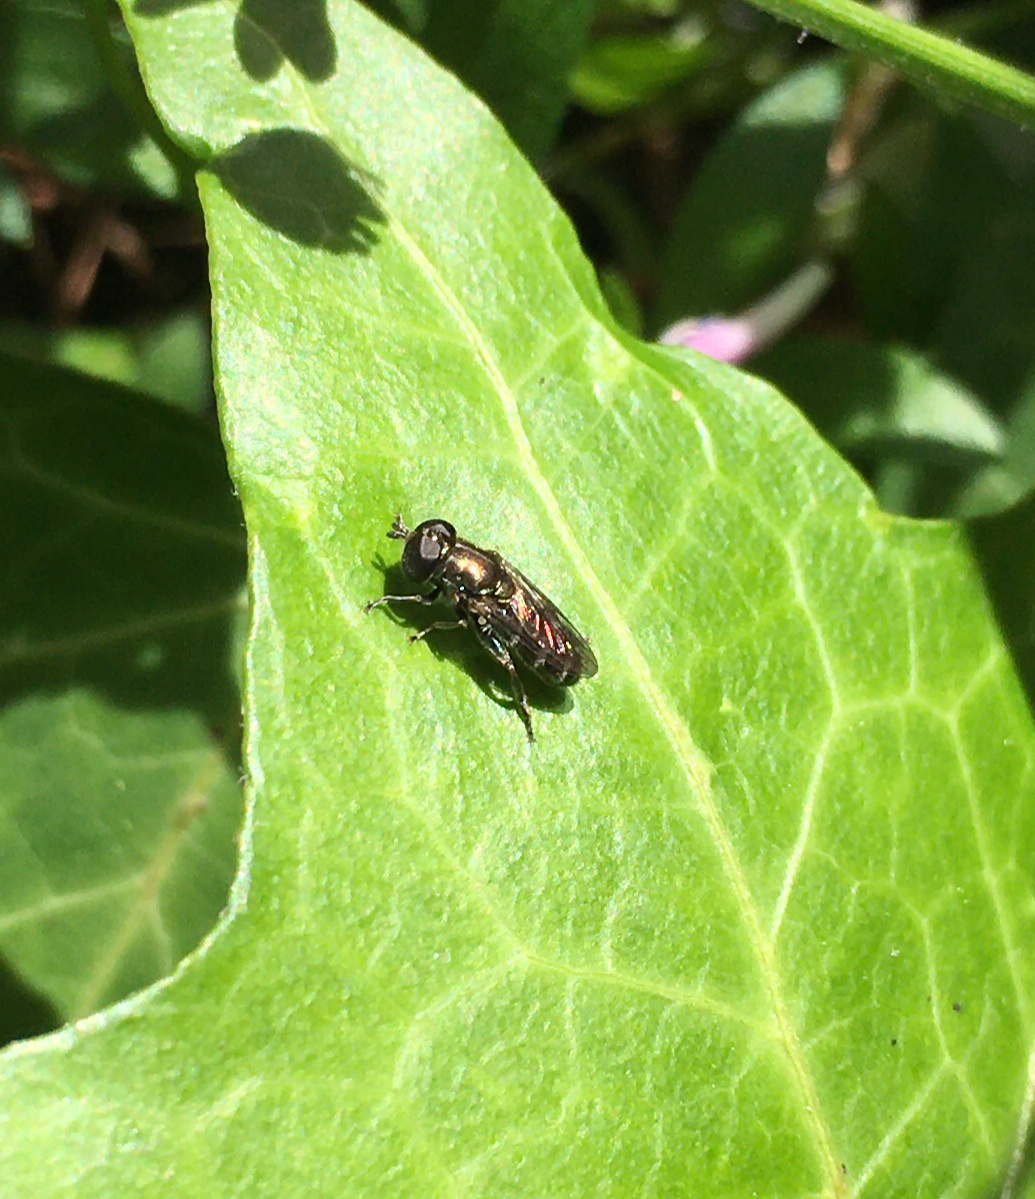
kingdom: Animalia
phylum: Arthropoda
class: Insecta
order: Diptera
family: Syrphidae
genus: Eumerus
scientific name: Eumerus
